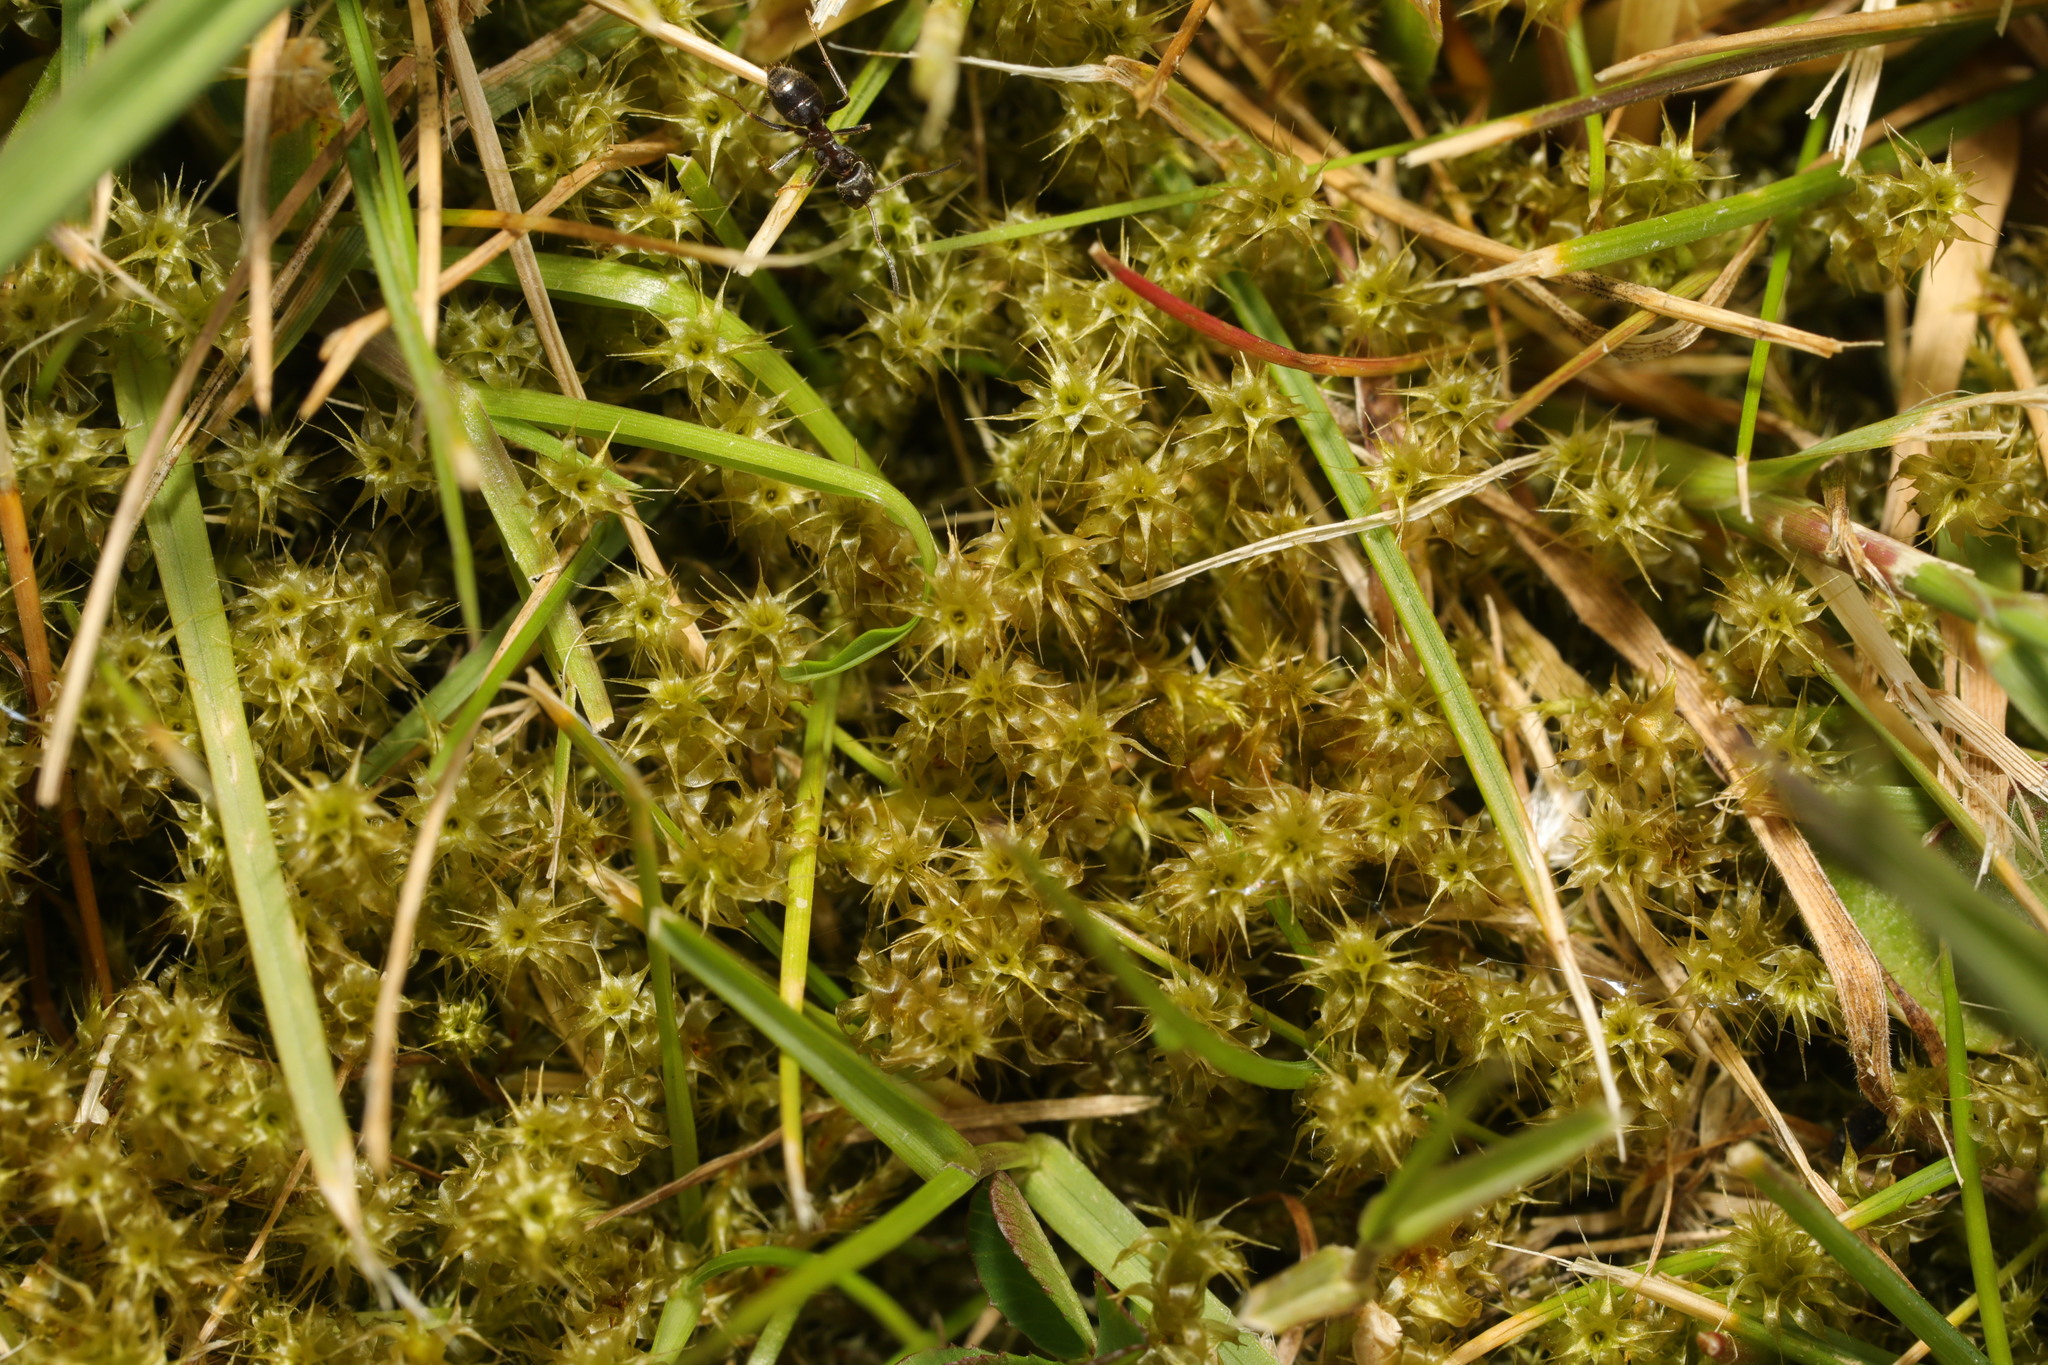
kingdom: Plantae
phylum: Bryophyta
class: Bryopsida
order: Hypnales
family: Hylocomiaceae
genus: Rhytidiadelphus
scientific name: Rhytidiadelphus squarrosus
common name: Springy turf-moss
